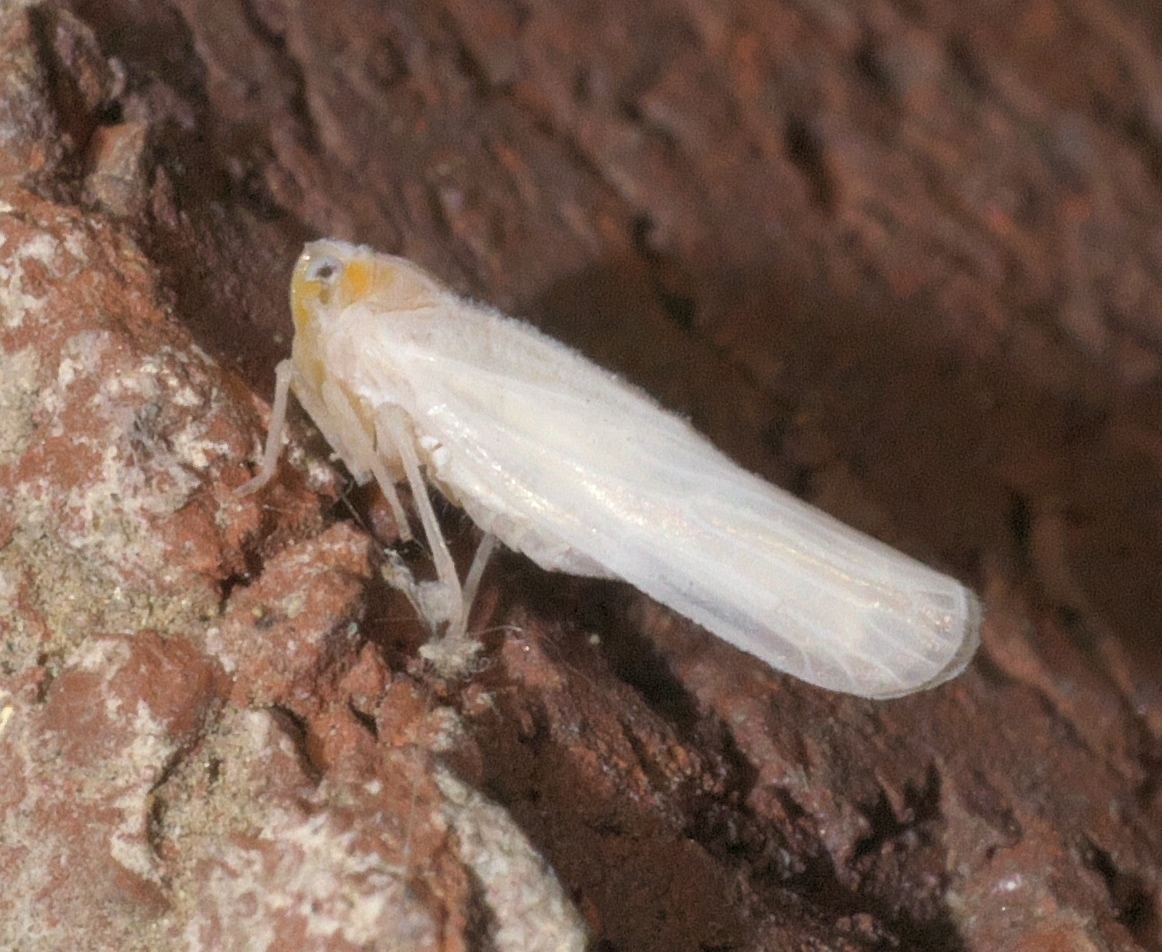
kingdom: Animalia
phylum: Arthropoda
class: Insecta
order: Hemiptera
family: Derbidae
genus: Neocenchrea
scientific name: Neocenchrea heidemanni
